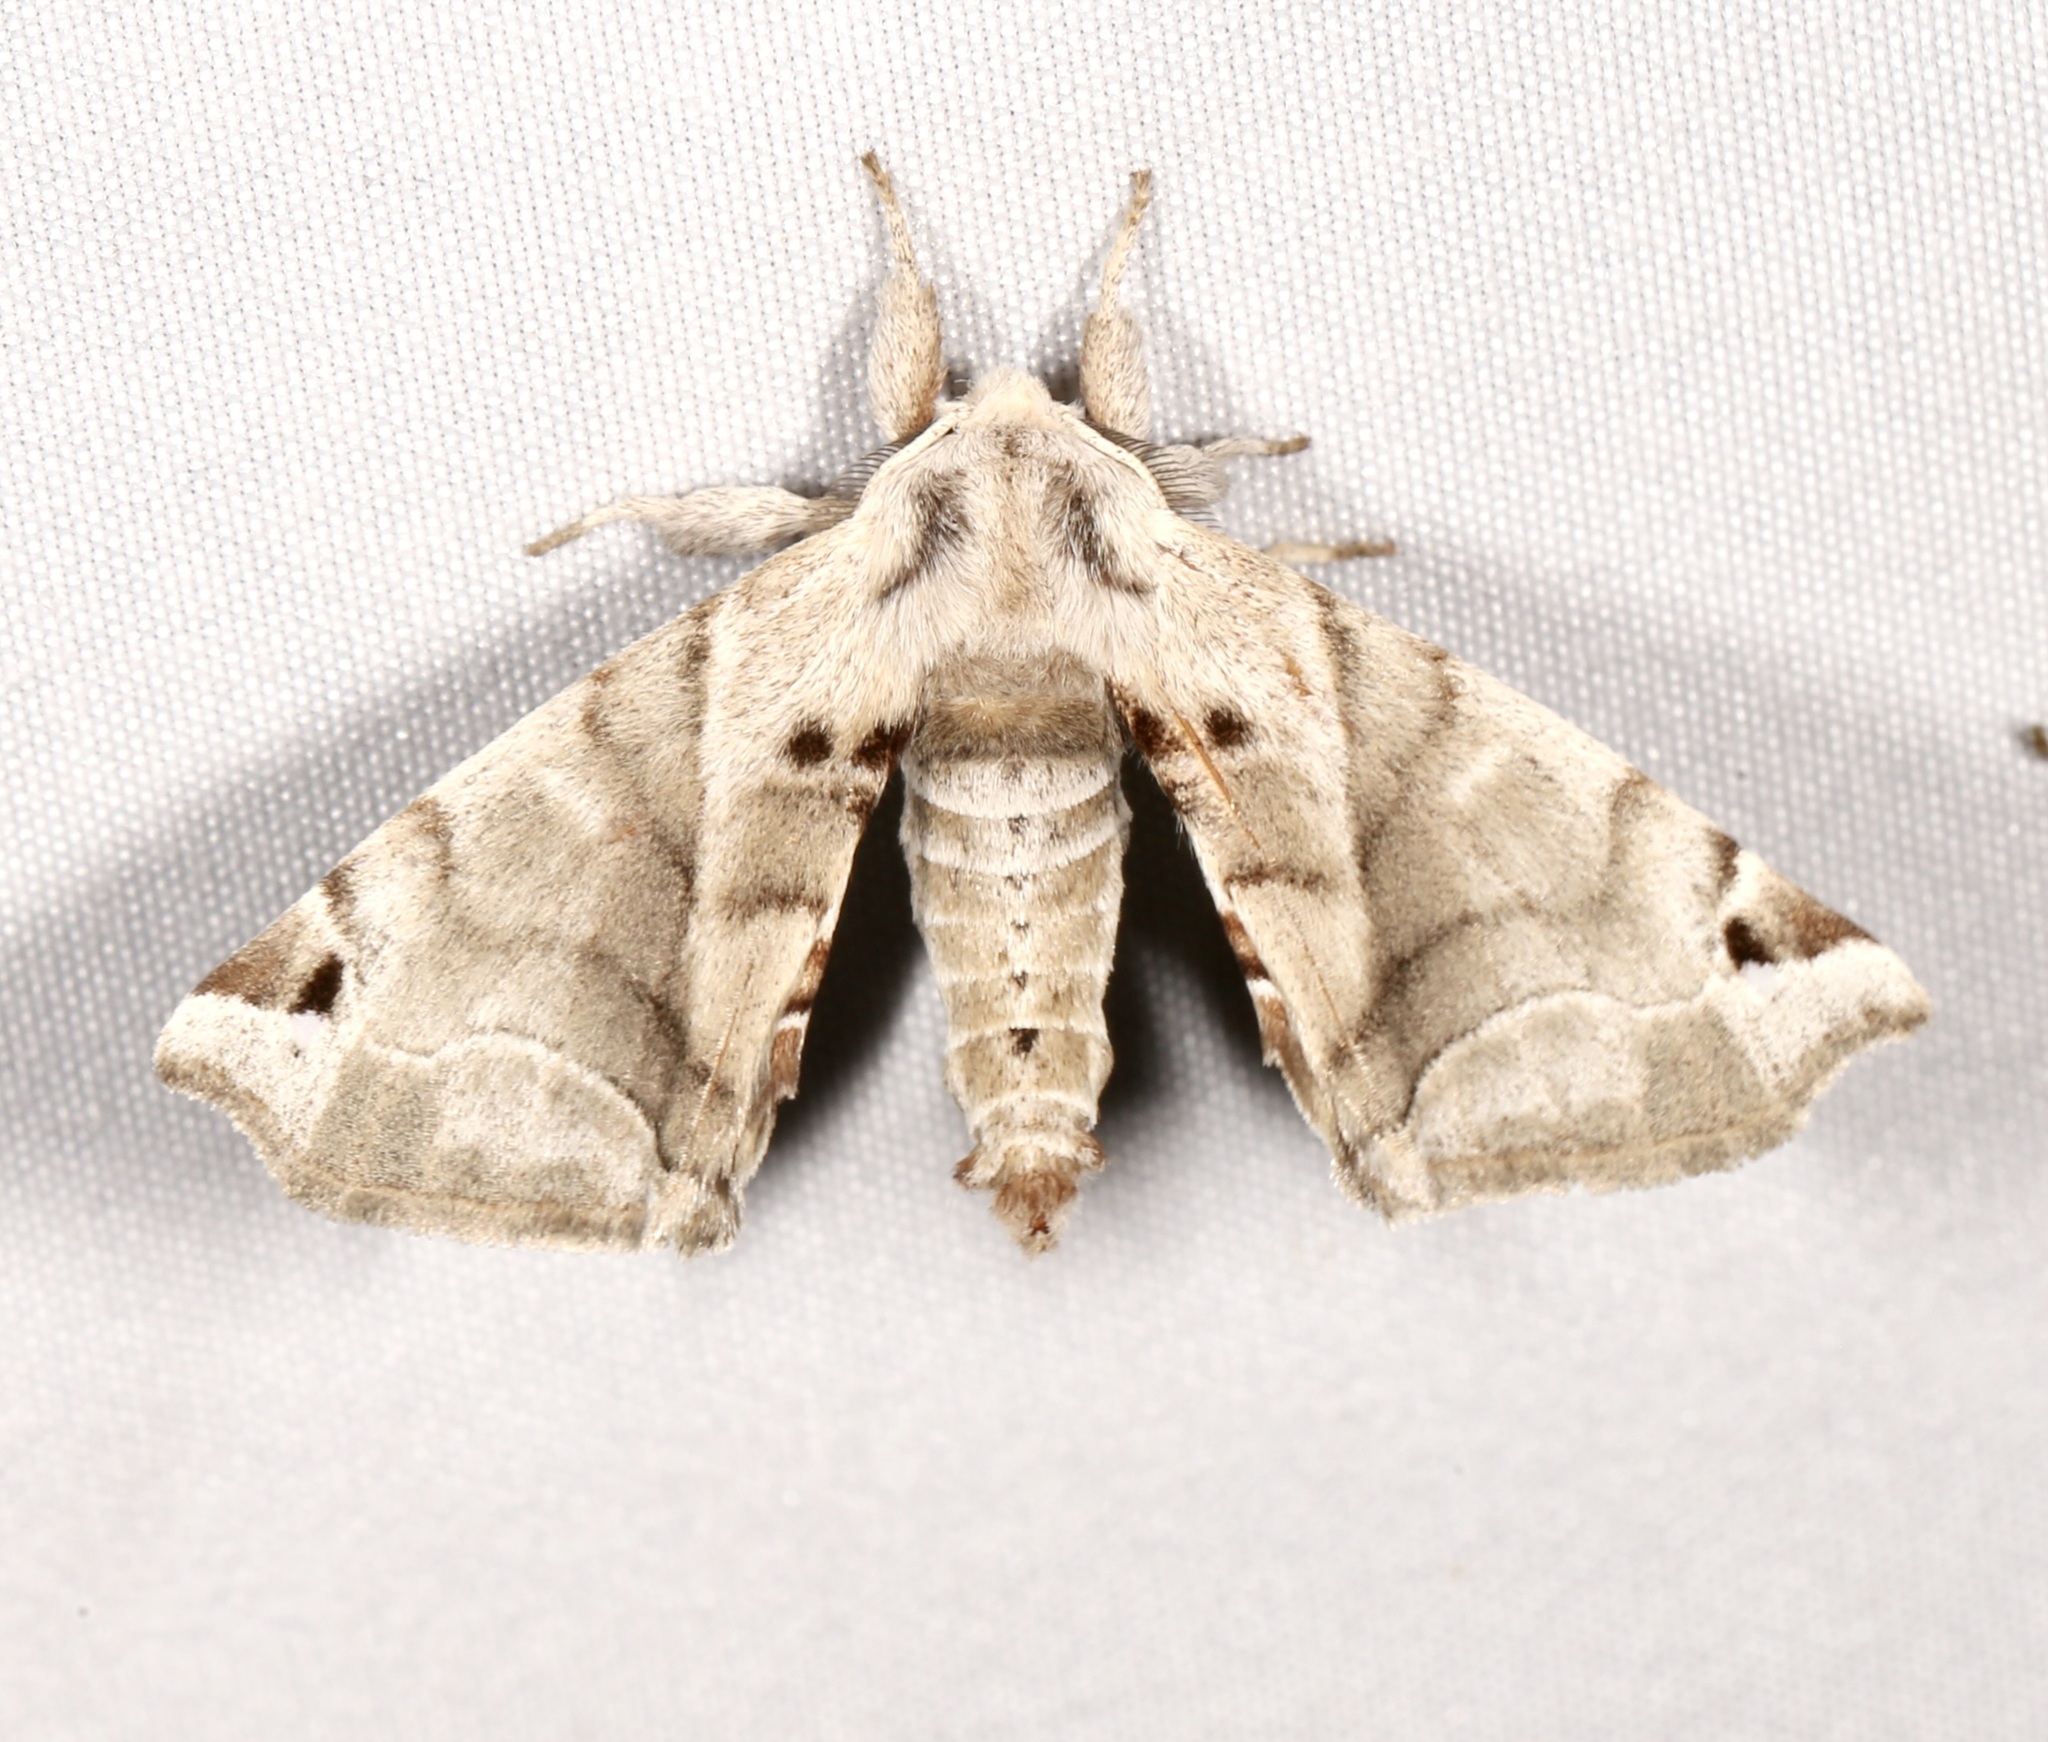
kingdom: Animalia
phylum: Arthropoda
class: Insecta
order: Lepidoptera
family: Apatelodidae
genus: Hygrochroa
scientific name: Hygrochroa Apatelodes pudefacta
